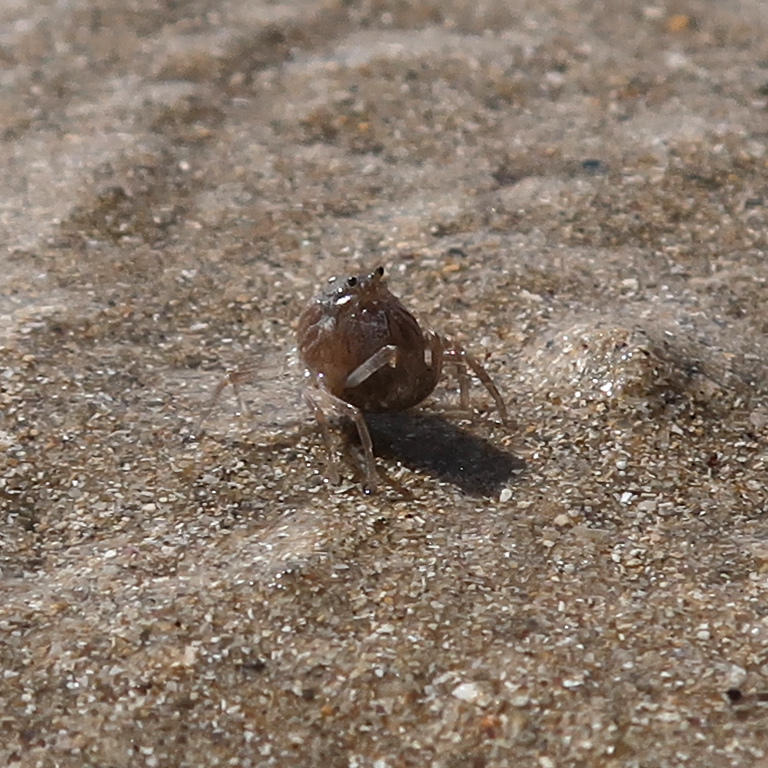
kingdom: Animalia
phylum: Arthropoda
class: Malacostraca
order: Decapoda
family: Mictyridae
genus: Mictyris
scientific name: Mictyris platycheles
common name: Dark blue soldier crab
